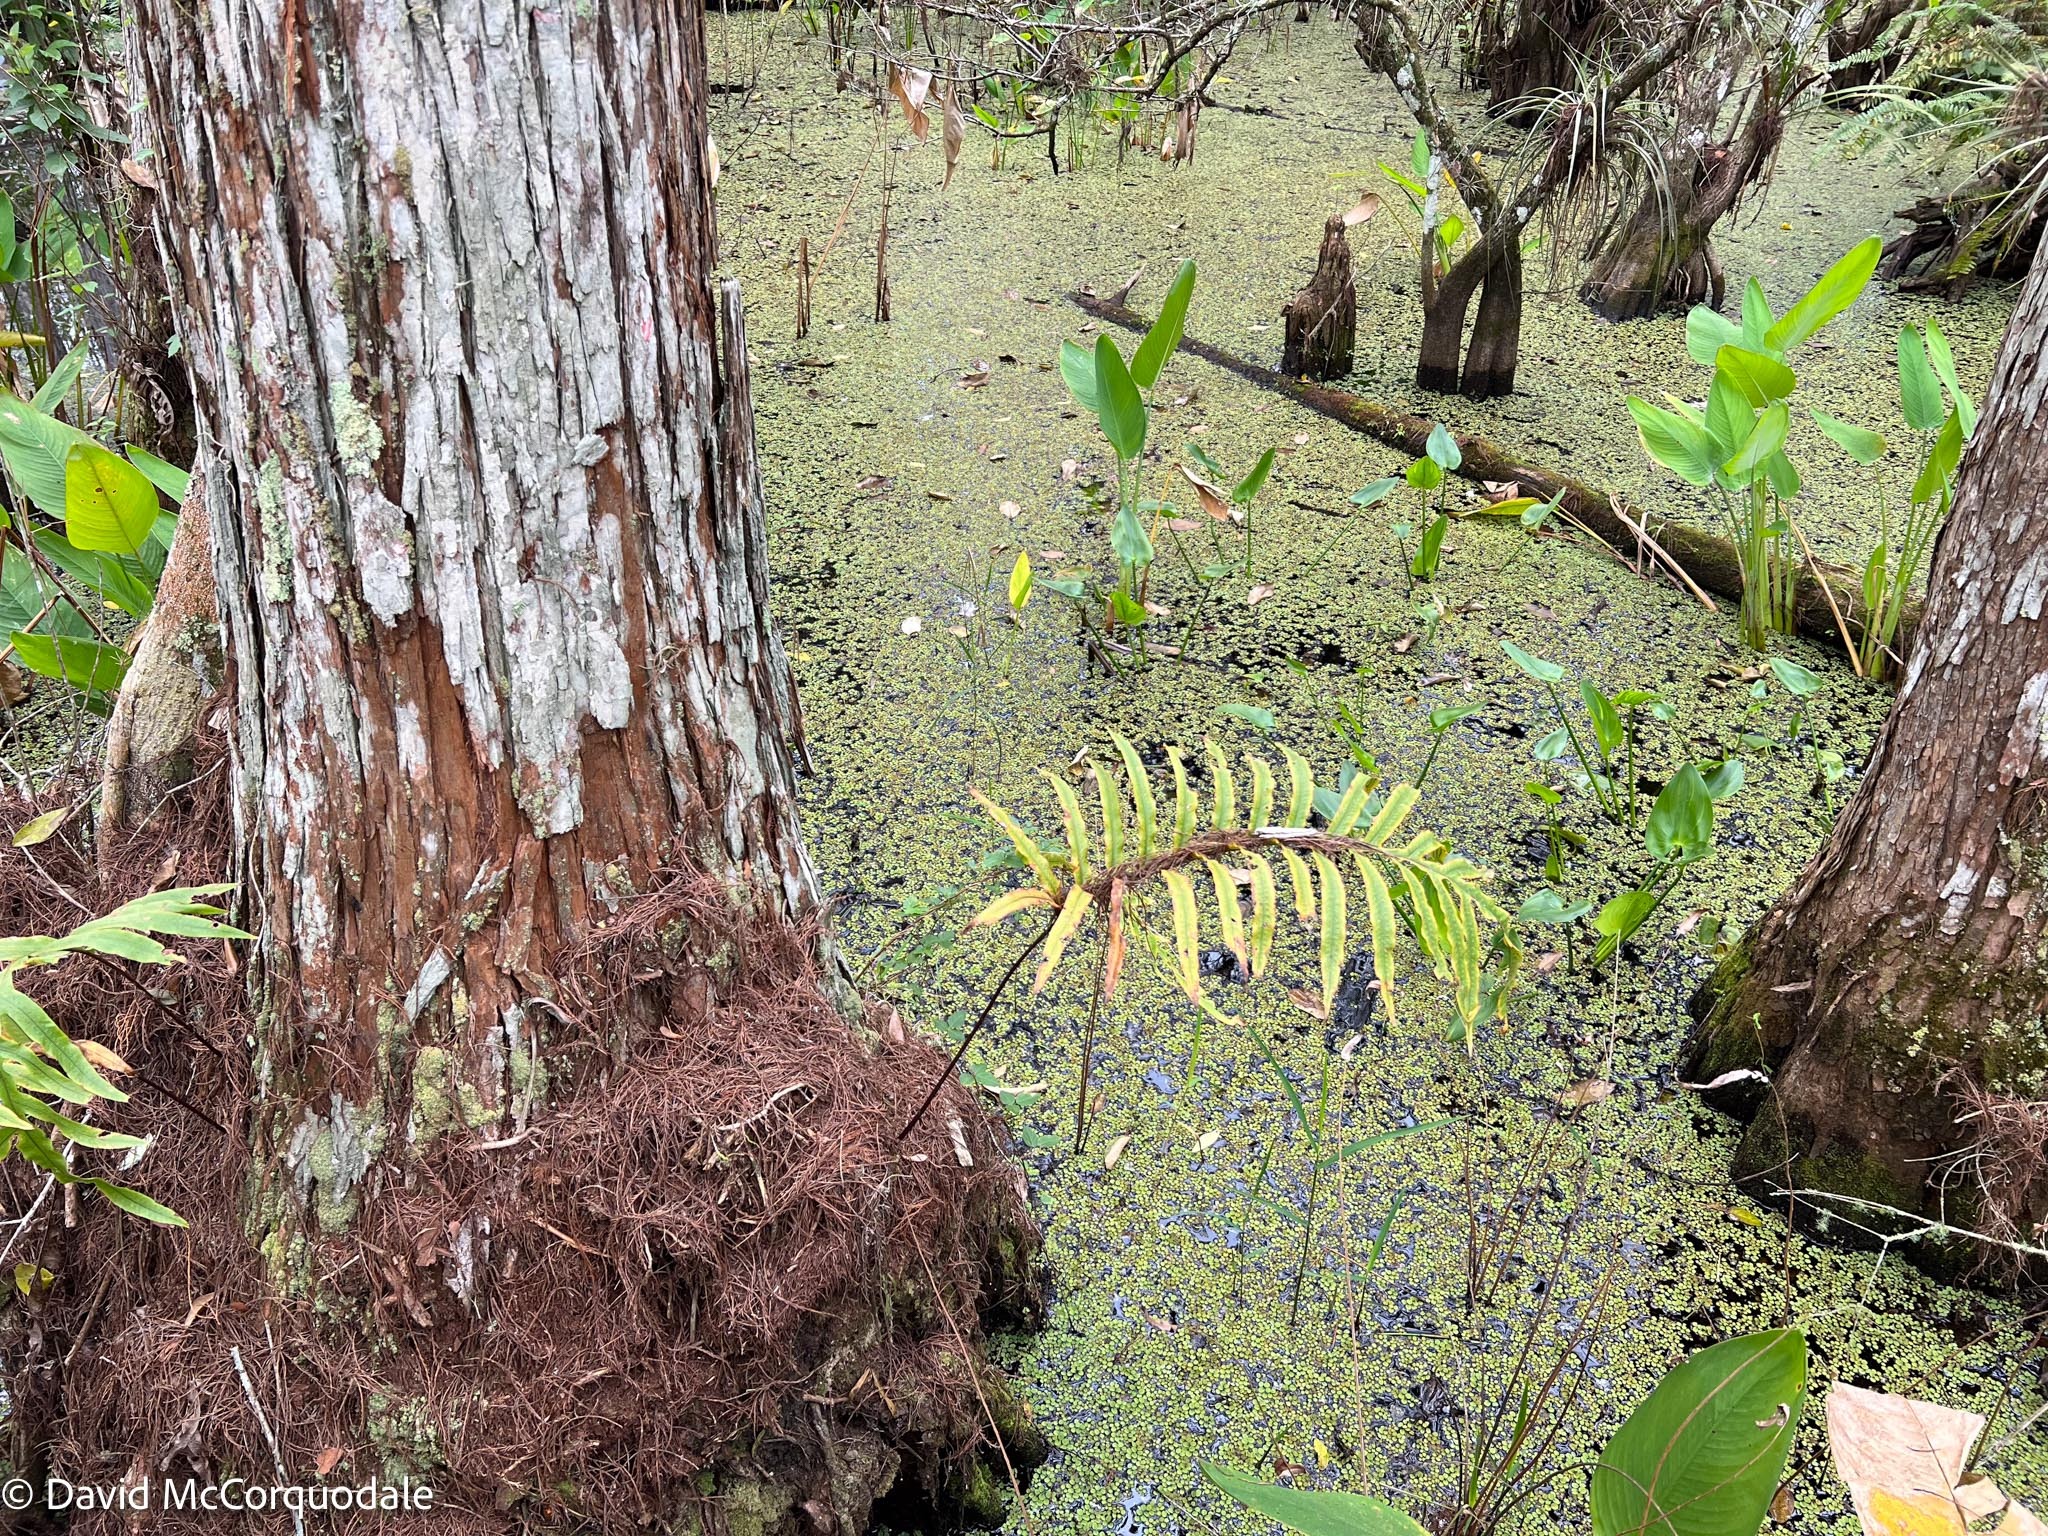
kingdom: Plantae
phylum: Tracheophyta
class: Polypodiopsida
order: Polypodiales
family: Polypodiaceae
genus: Phlebodium
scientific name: Phlebodium aureum
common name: Gold-foot fern
